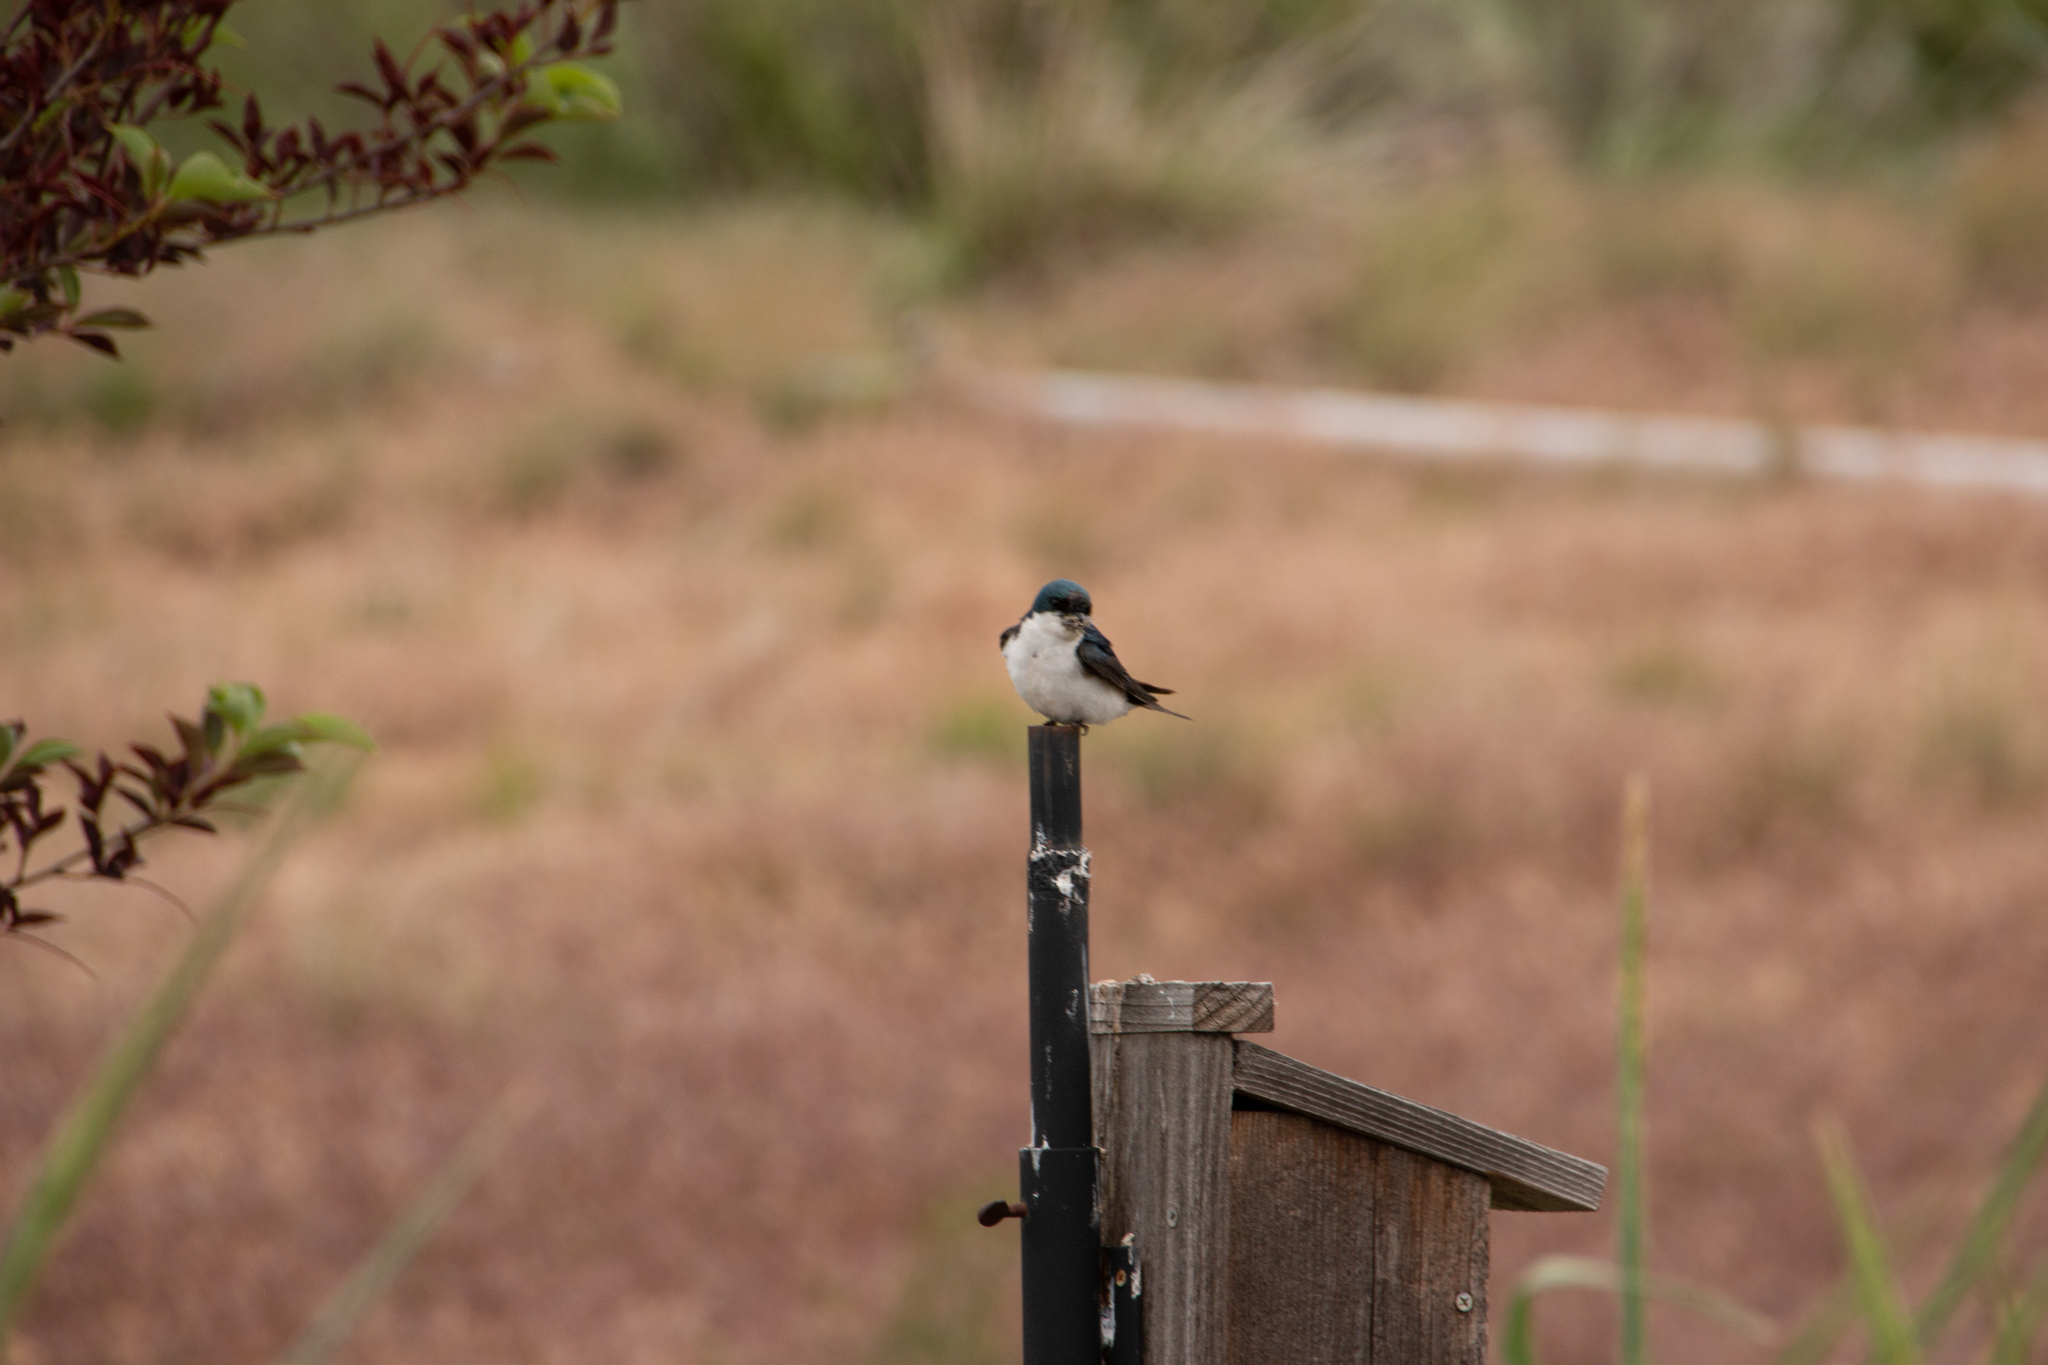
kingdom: Animalia
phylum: Chordata
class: Aves
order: Passeriformes
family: Hirundinidae
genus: Tachycineta
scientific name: Tachycineta bicolor
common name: Tree swallow
